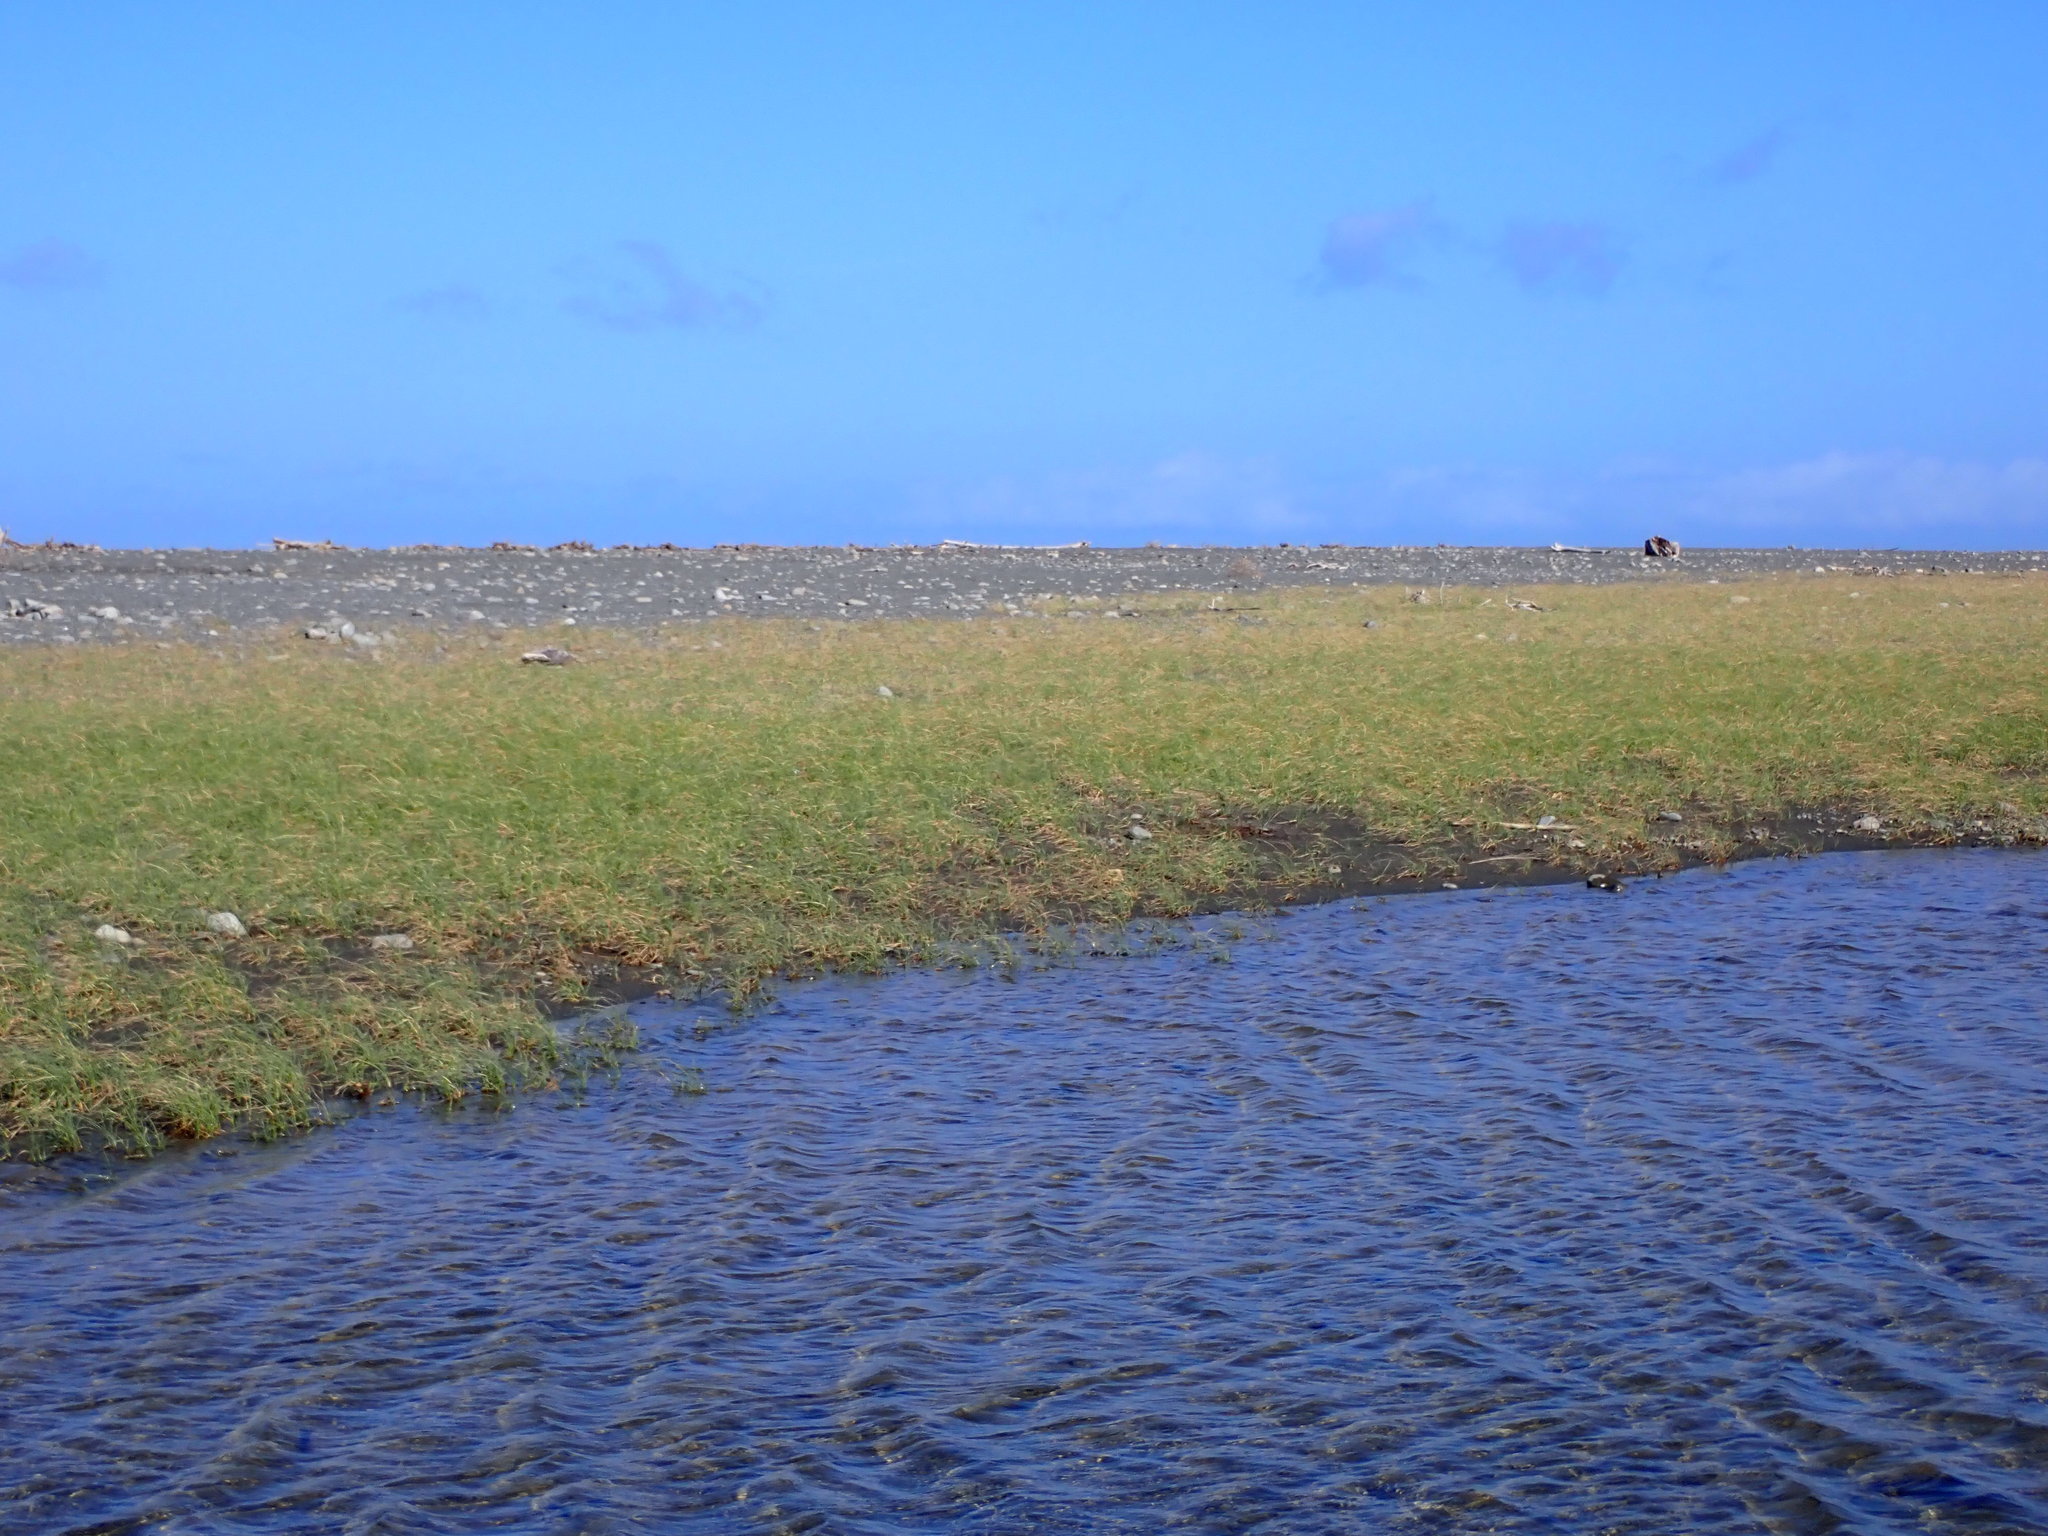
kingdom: Plantae
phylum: Tracheophyta
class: Liliopsida
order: Poales
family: Cyperaceae
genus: Carex
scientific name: Carex pumila
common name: Dwarf sedge
